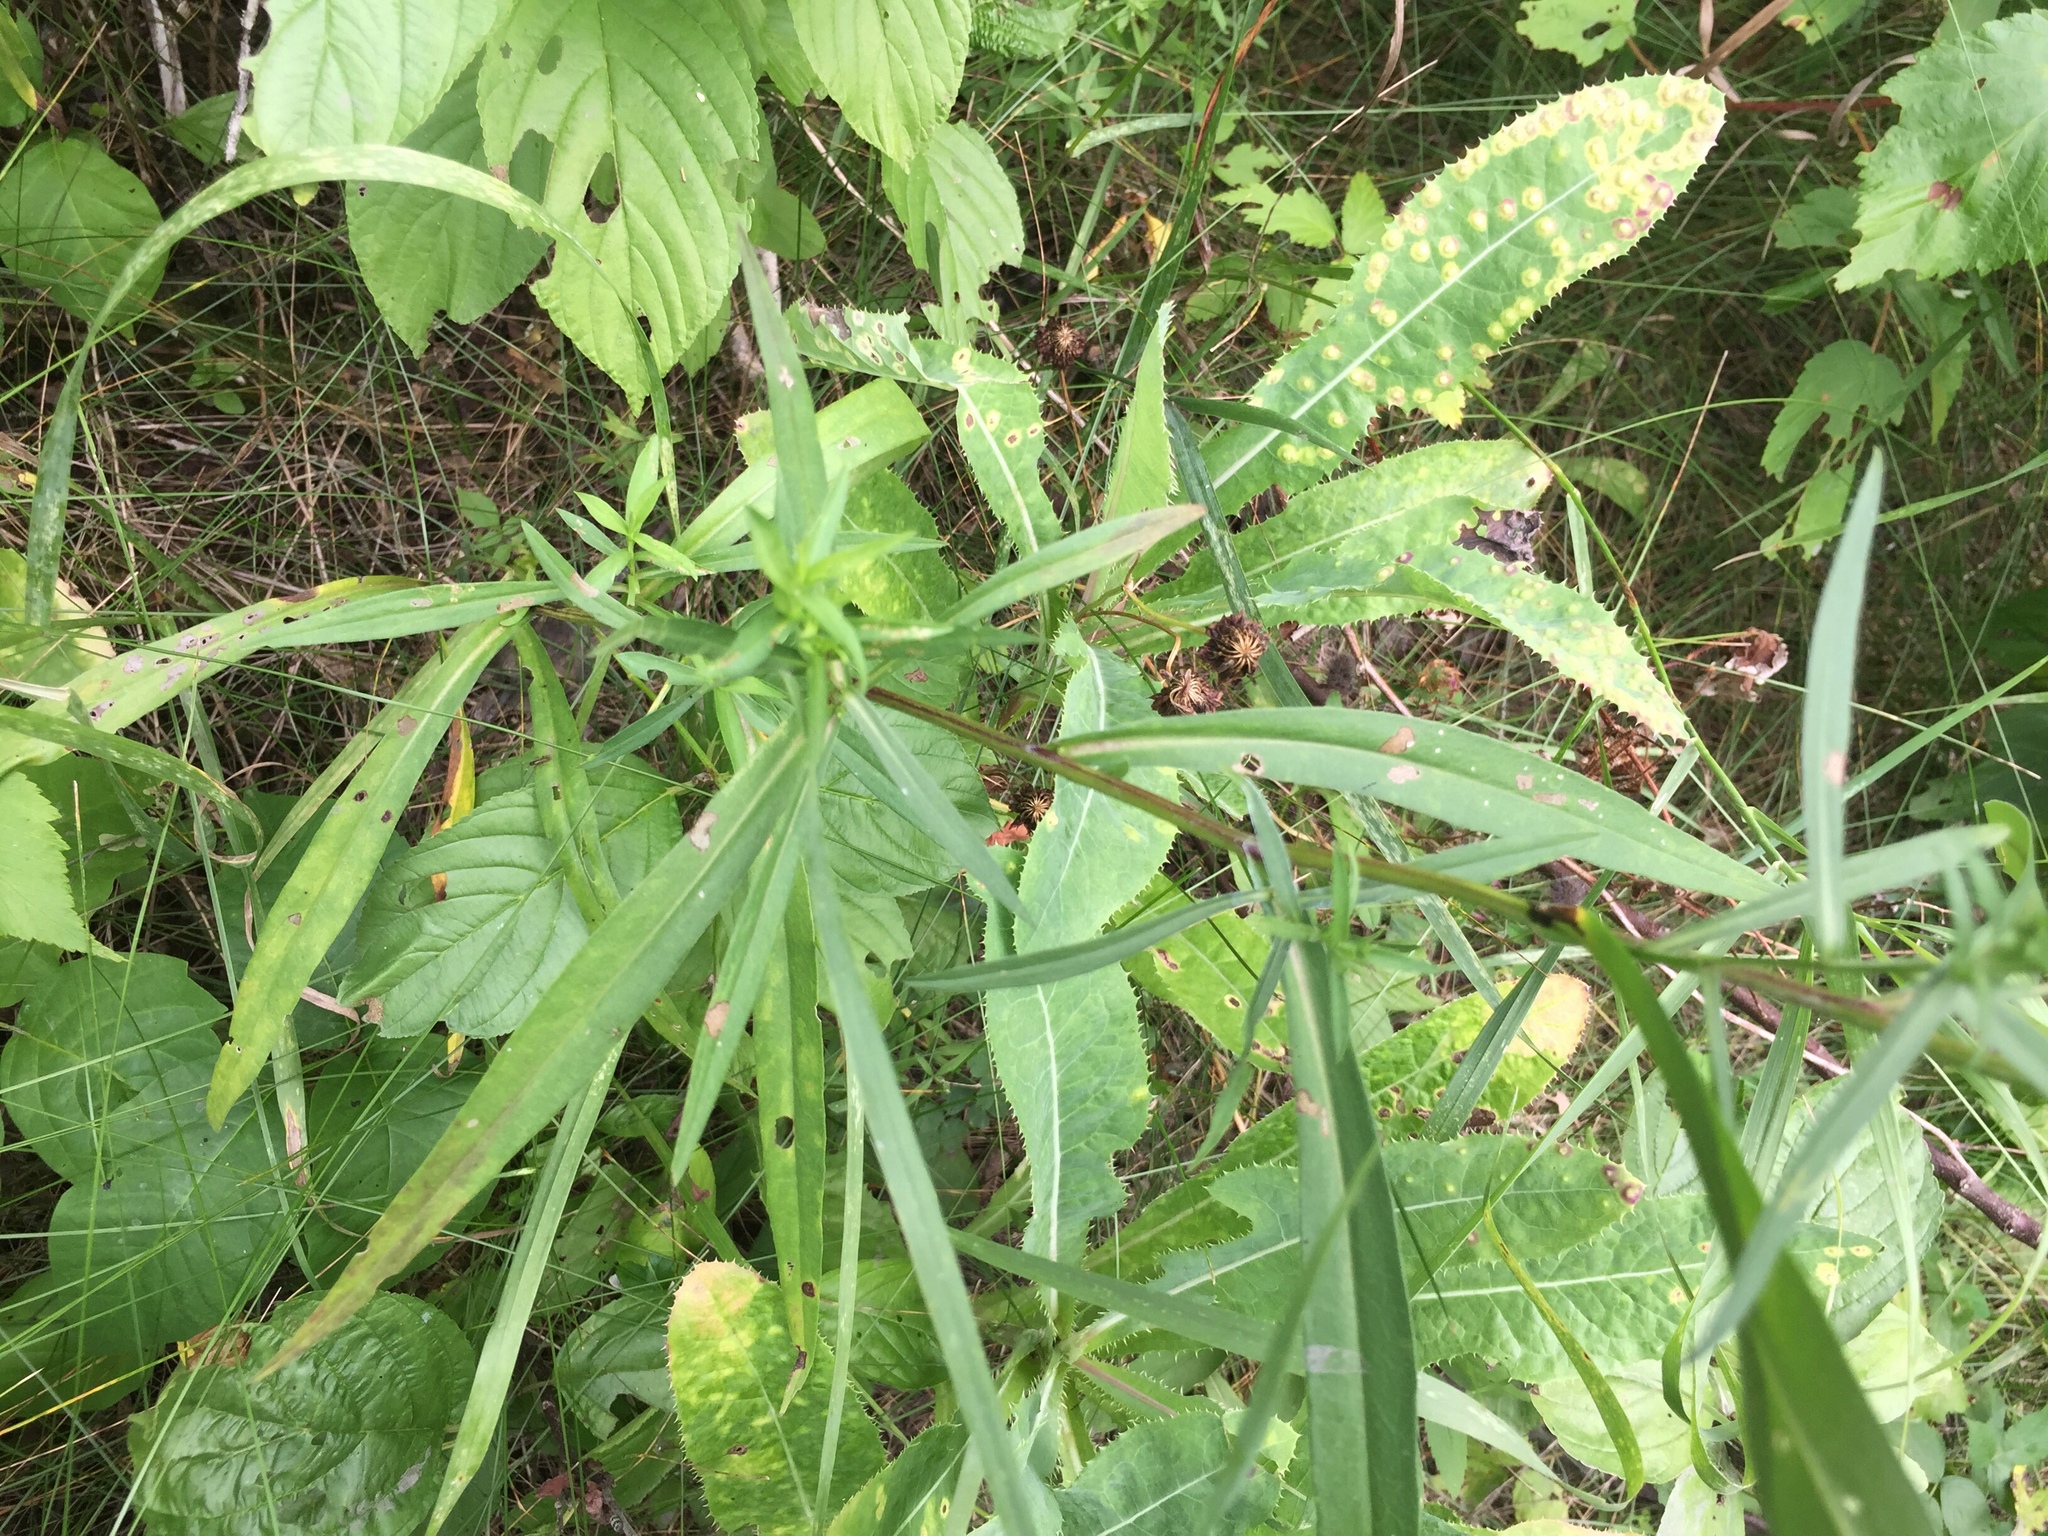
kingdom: Plantae
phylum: Tracheophyta
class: Magnoliopsida
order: Asterales
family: Asteraceae
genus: Symphyotrichum
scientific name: Symphyotrichum lanceolatum
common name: Panicled aster
